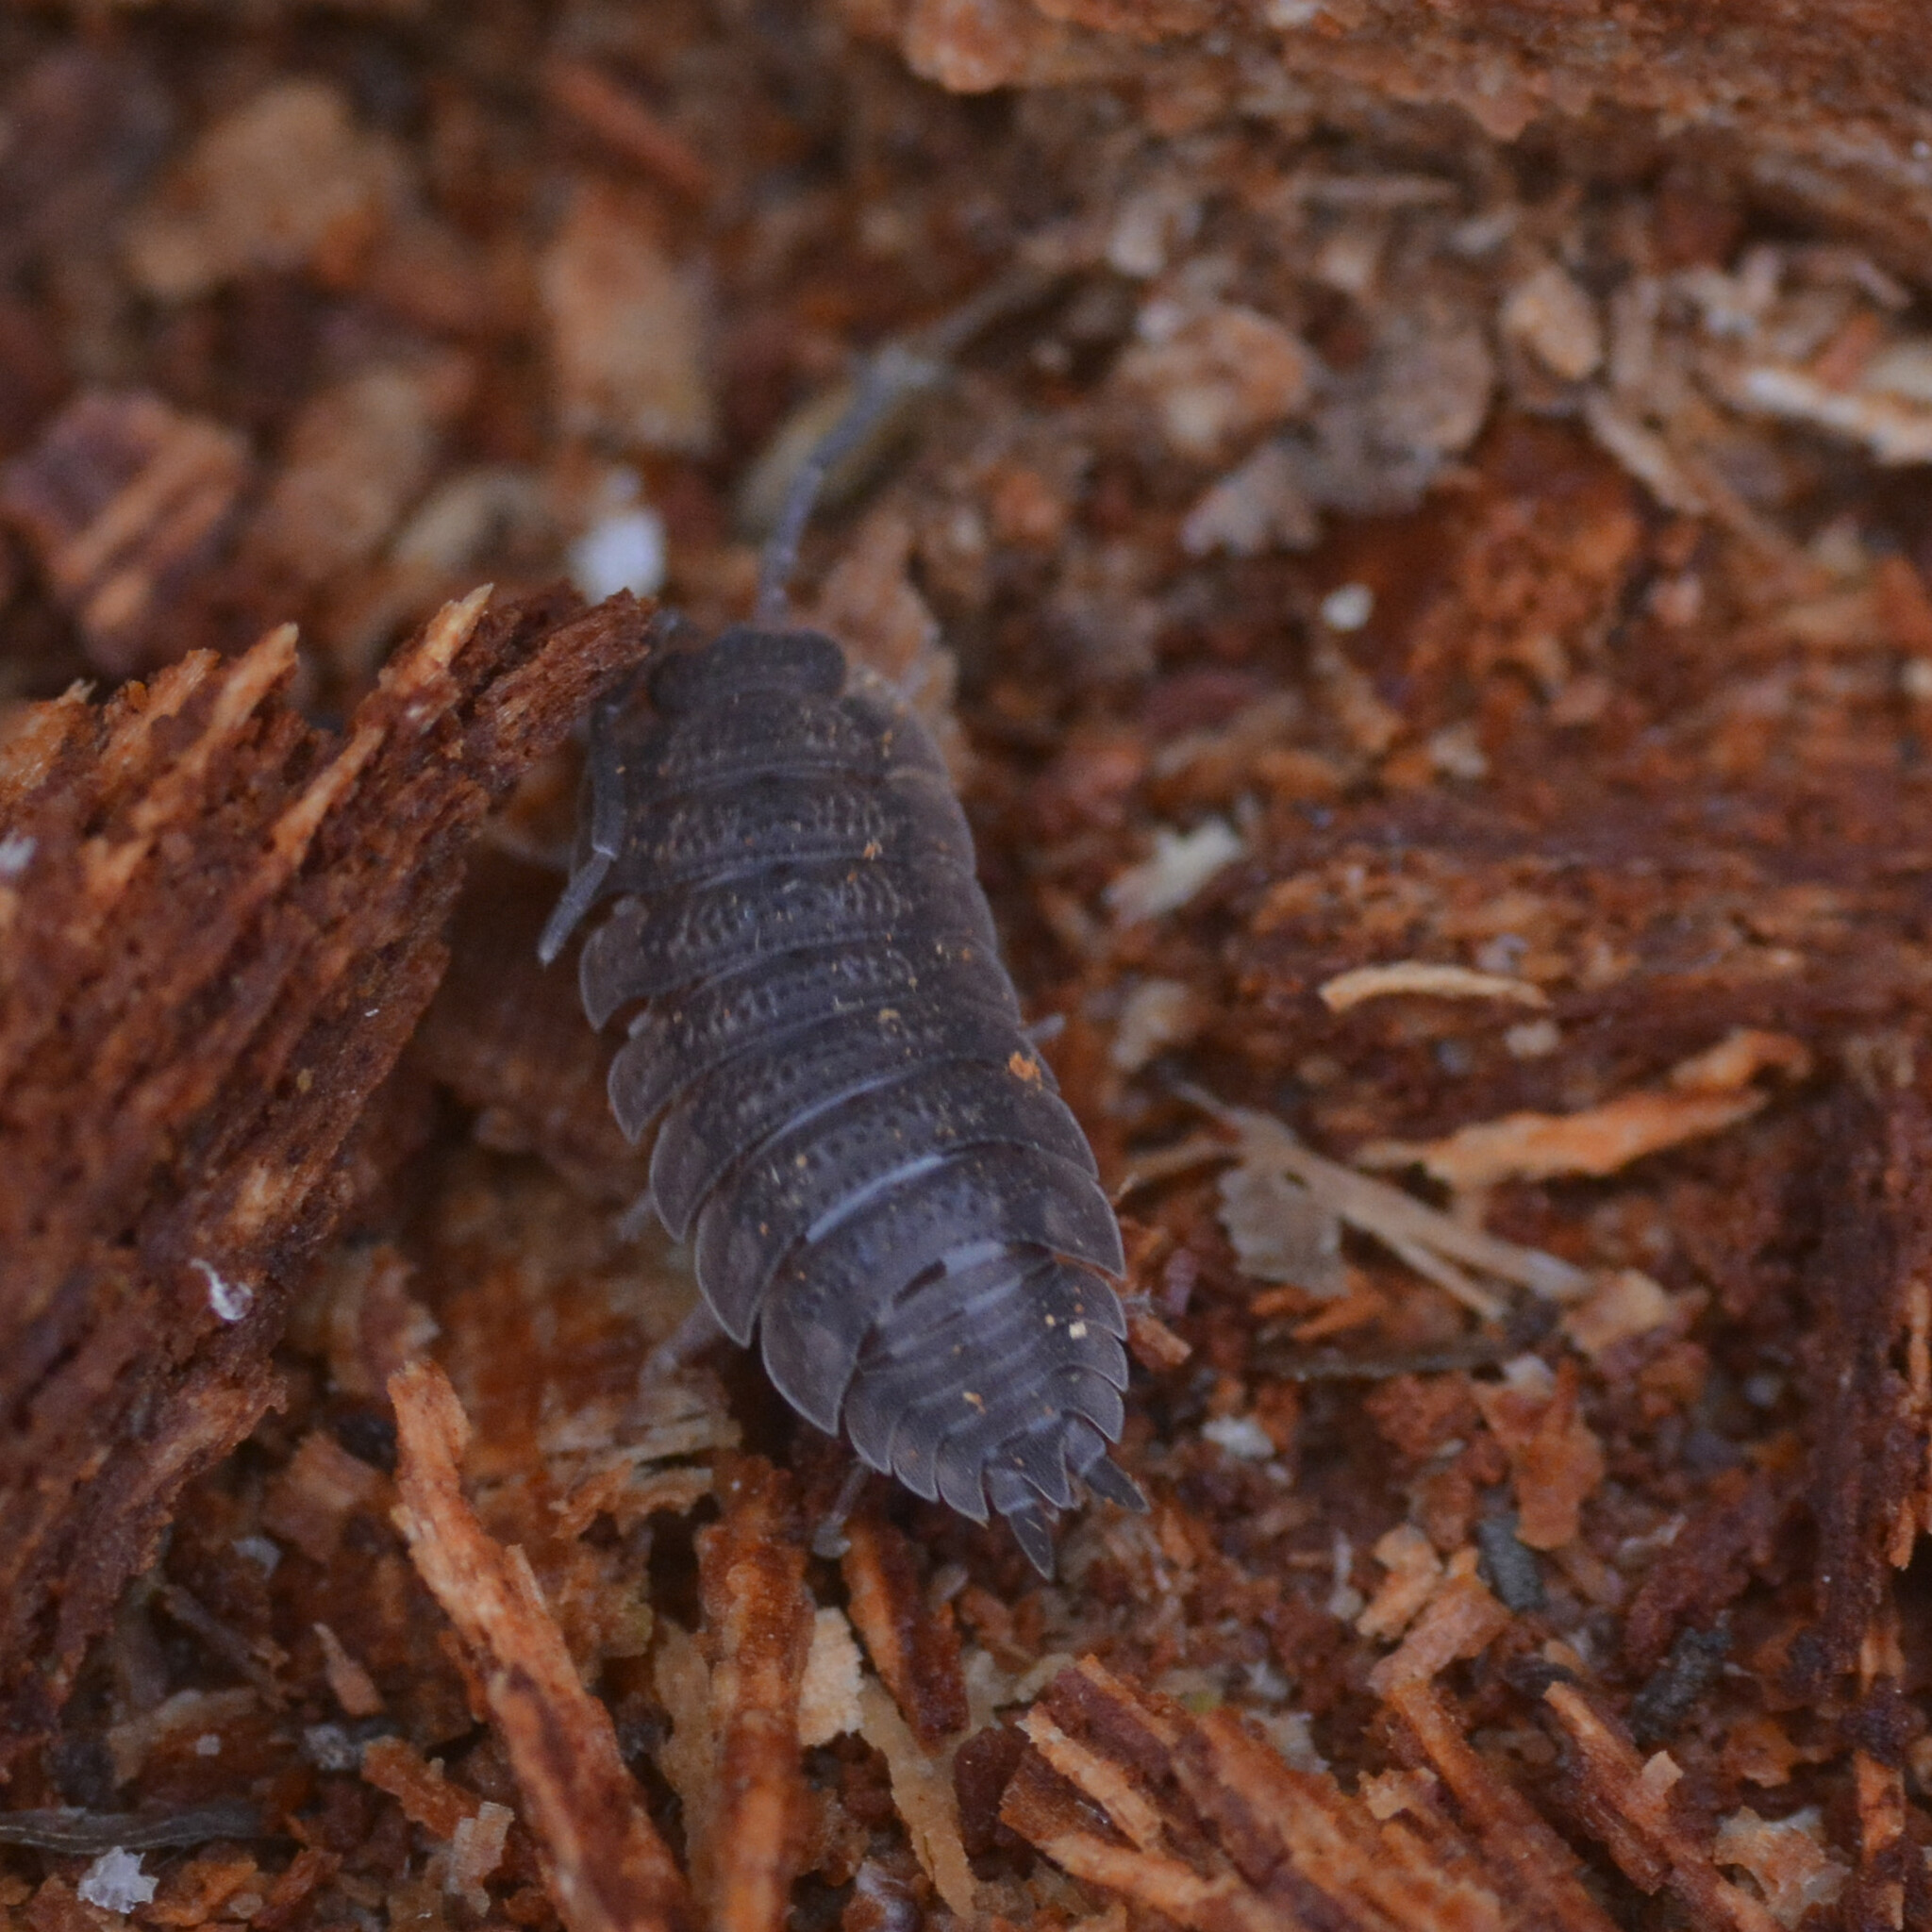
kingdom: Animalia
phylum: Arthropoda
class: Malacostraca
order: Isopoda
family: Porcellionidae
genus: Porcellio
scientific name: Porcellio scaber
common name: Common rough woodlouse
